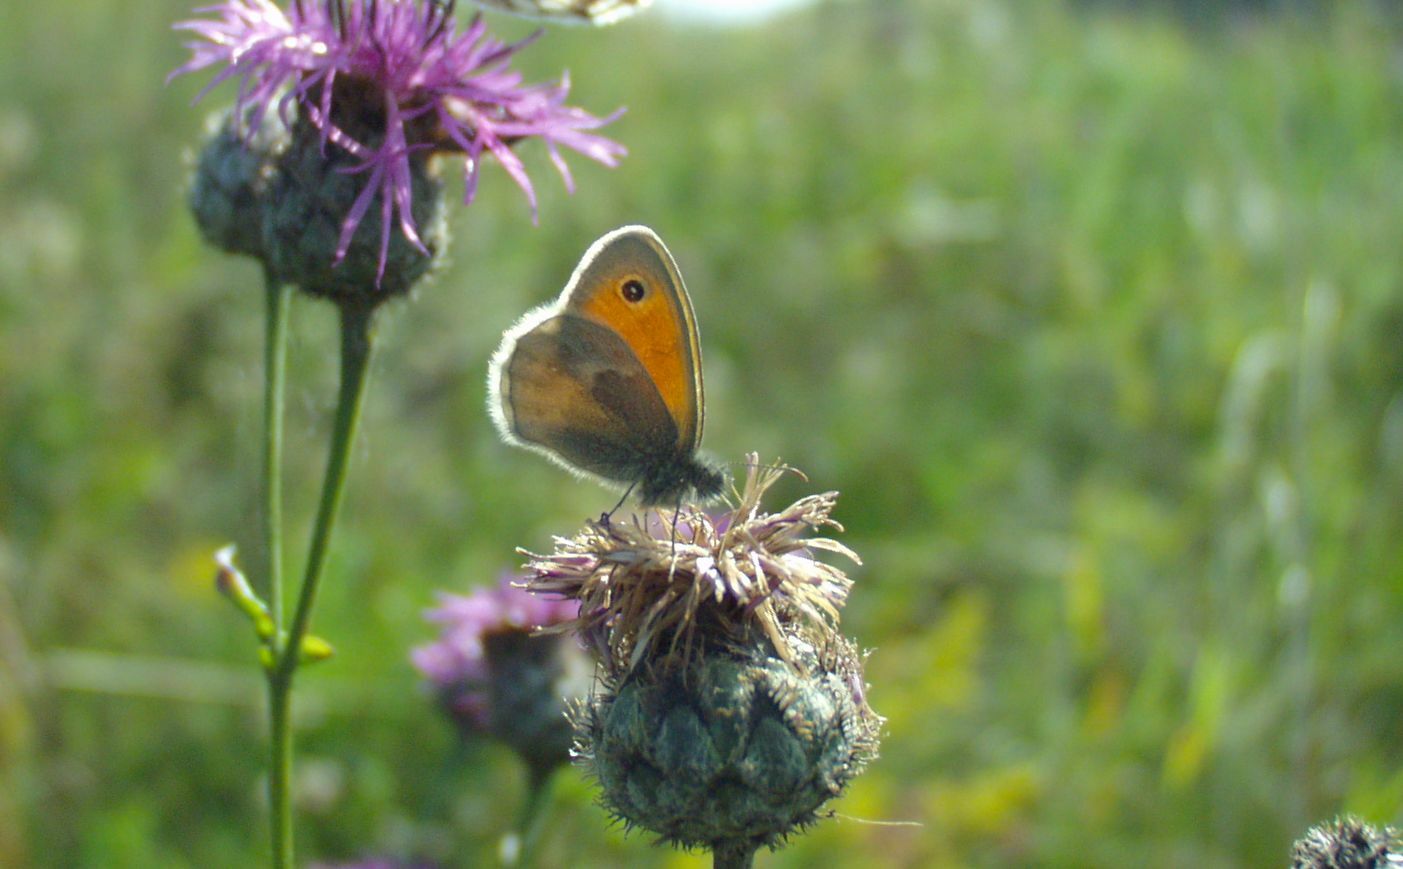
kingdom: Animalia
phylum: Arthropoda
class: Insecta
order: Lepidoptera
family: Nymphalidae
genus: Coenonympha
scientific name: Coenonympha pamphilus
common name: Small heath
